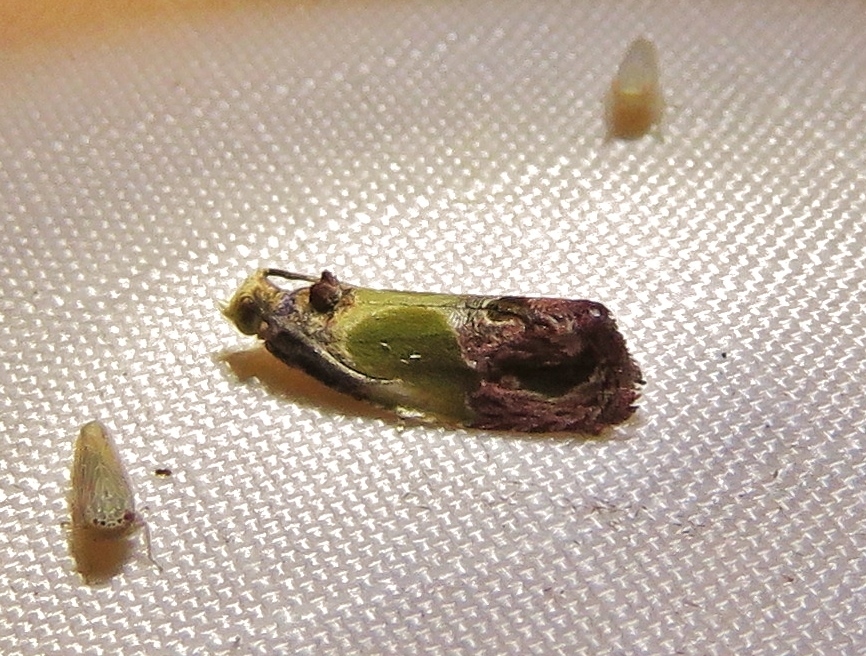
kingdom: Animalia
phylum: Arthropoda
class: Insecta
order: Lepidoptera
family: Tortricidae
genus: Eumarozia
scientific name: Eumarozia malachitana
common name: Sculptured moth
